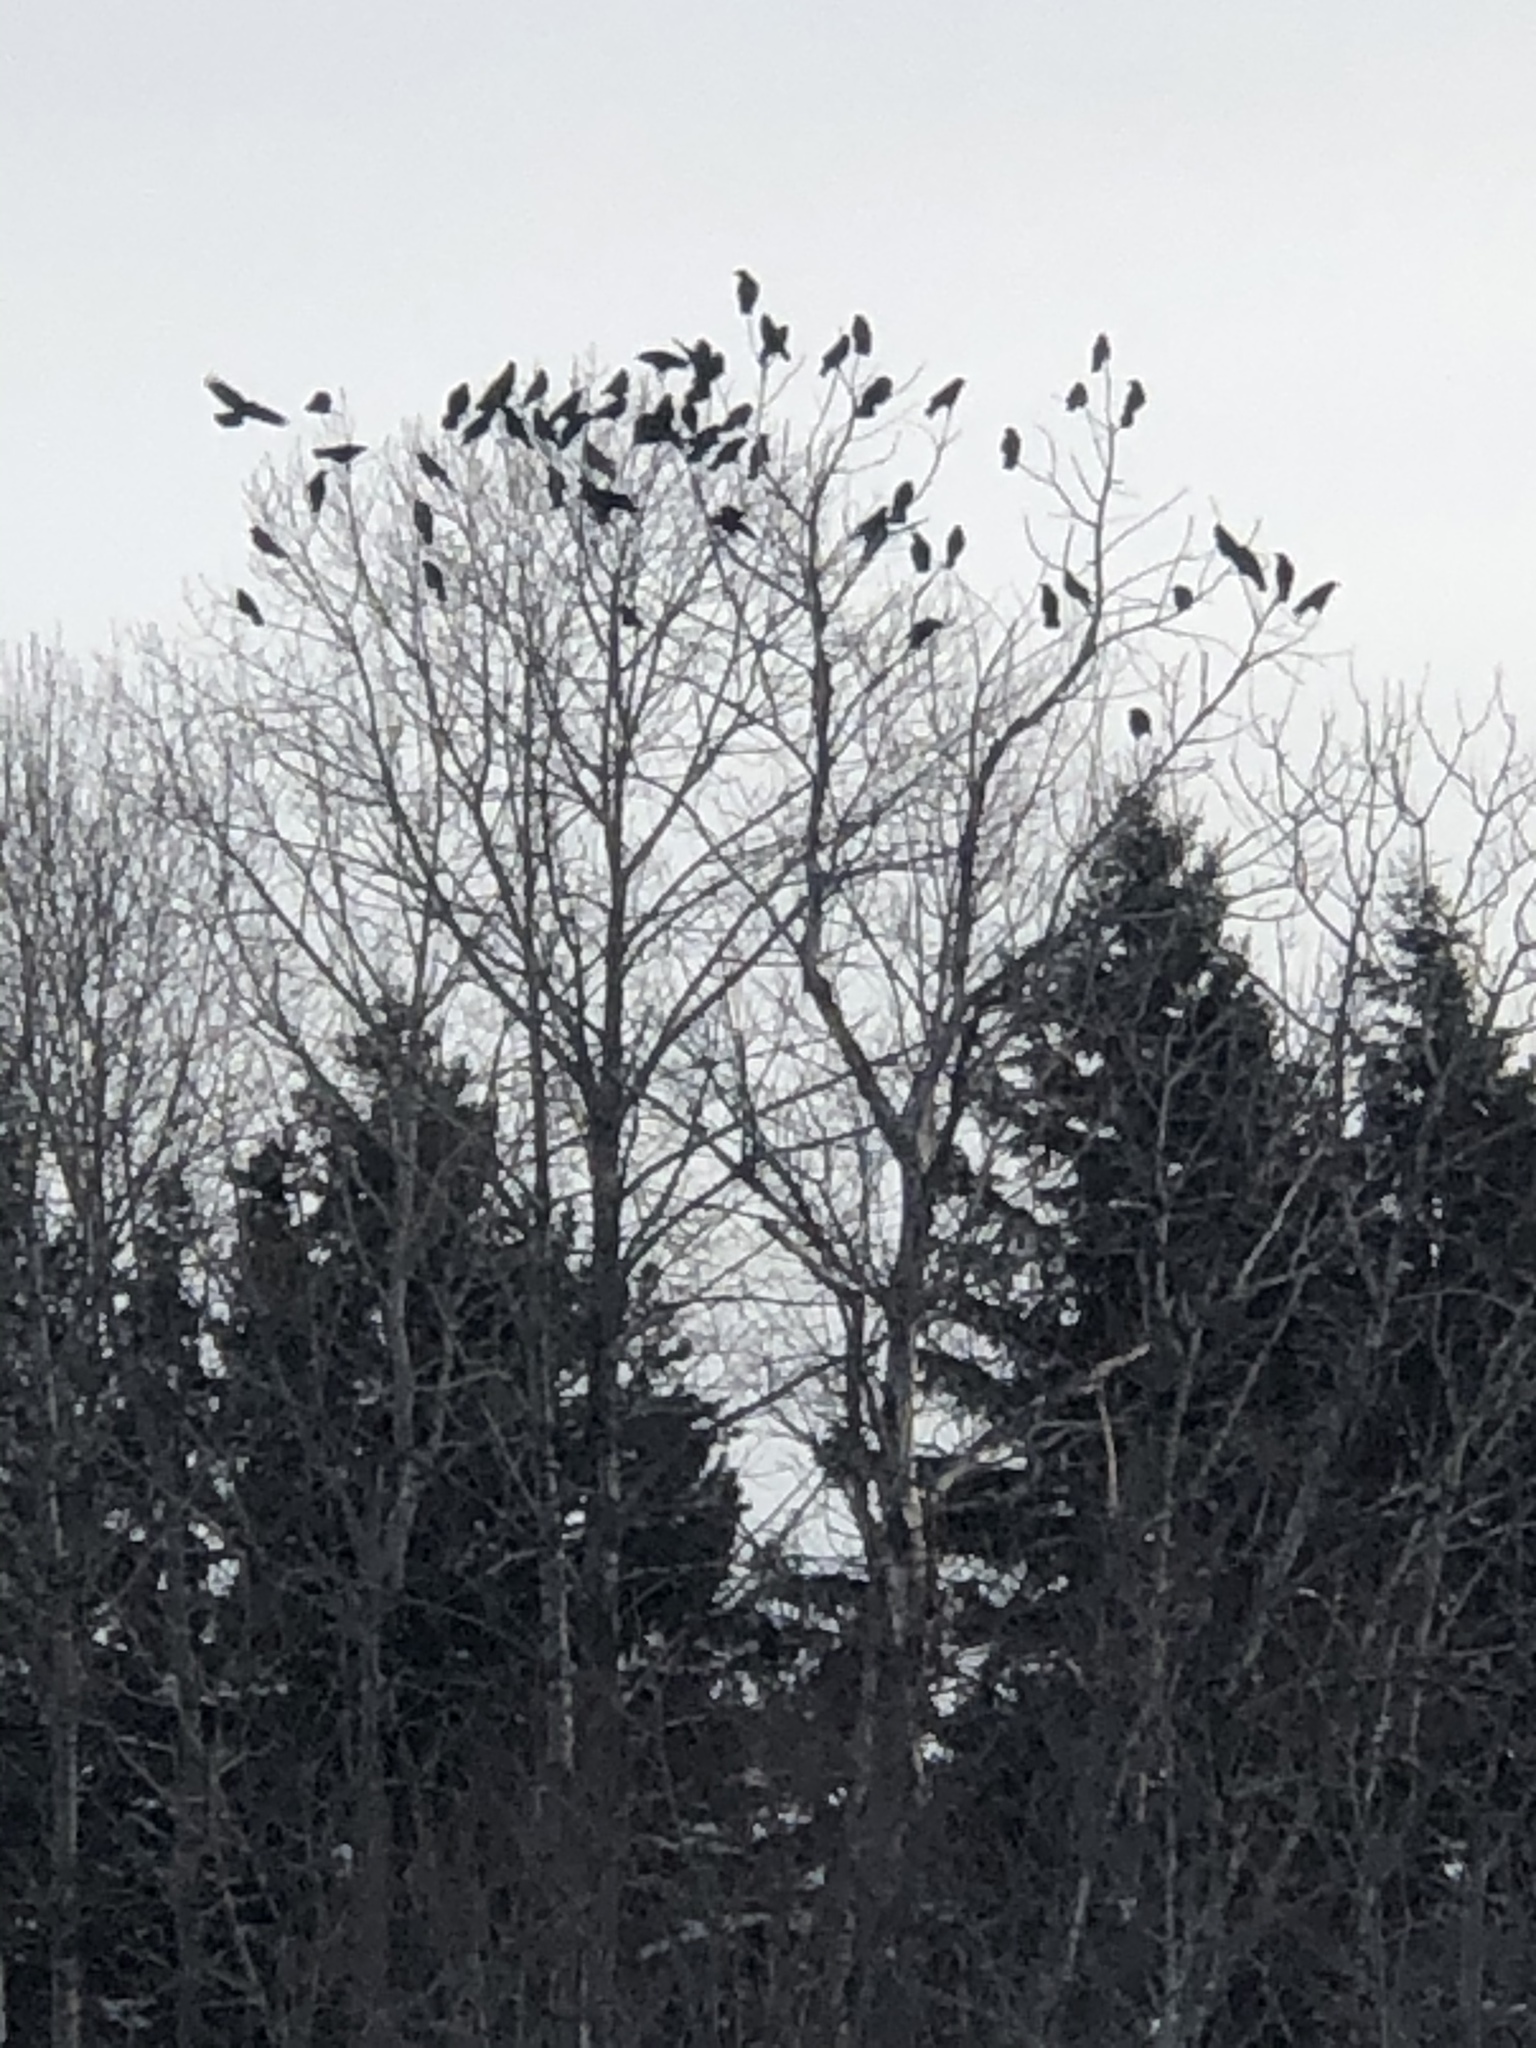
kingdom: Animalia
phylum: Chordata
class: Aves
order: Passeriformes
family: Corvidae
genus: Corvus
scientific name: Corvus brachyrhynchos
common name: American crow
